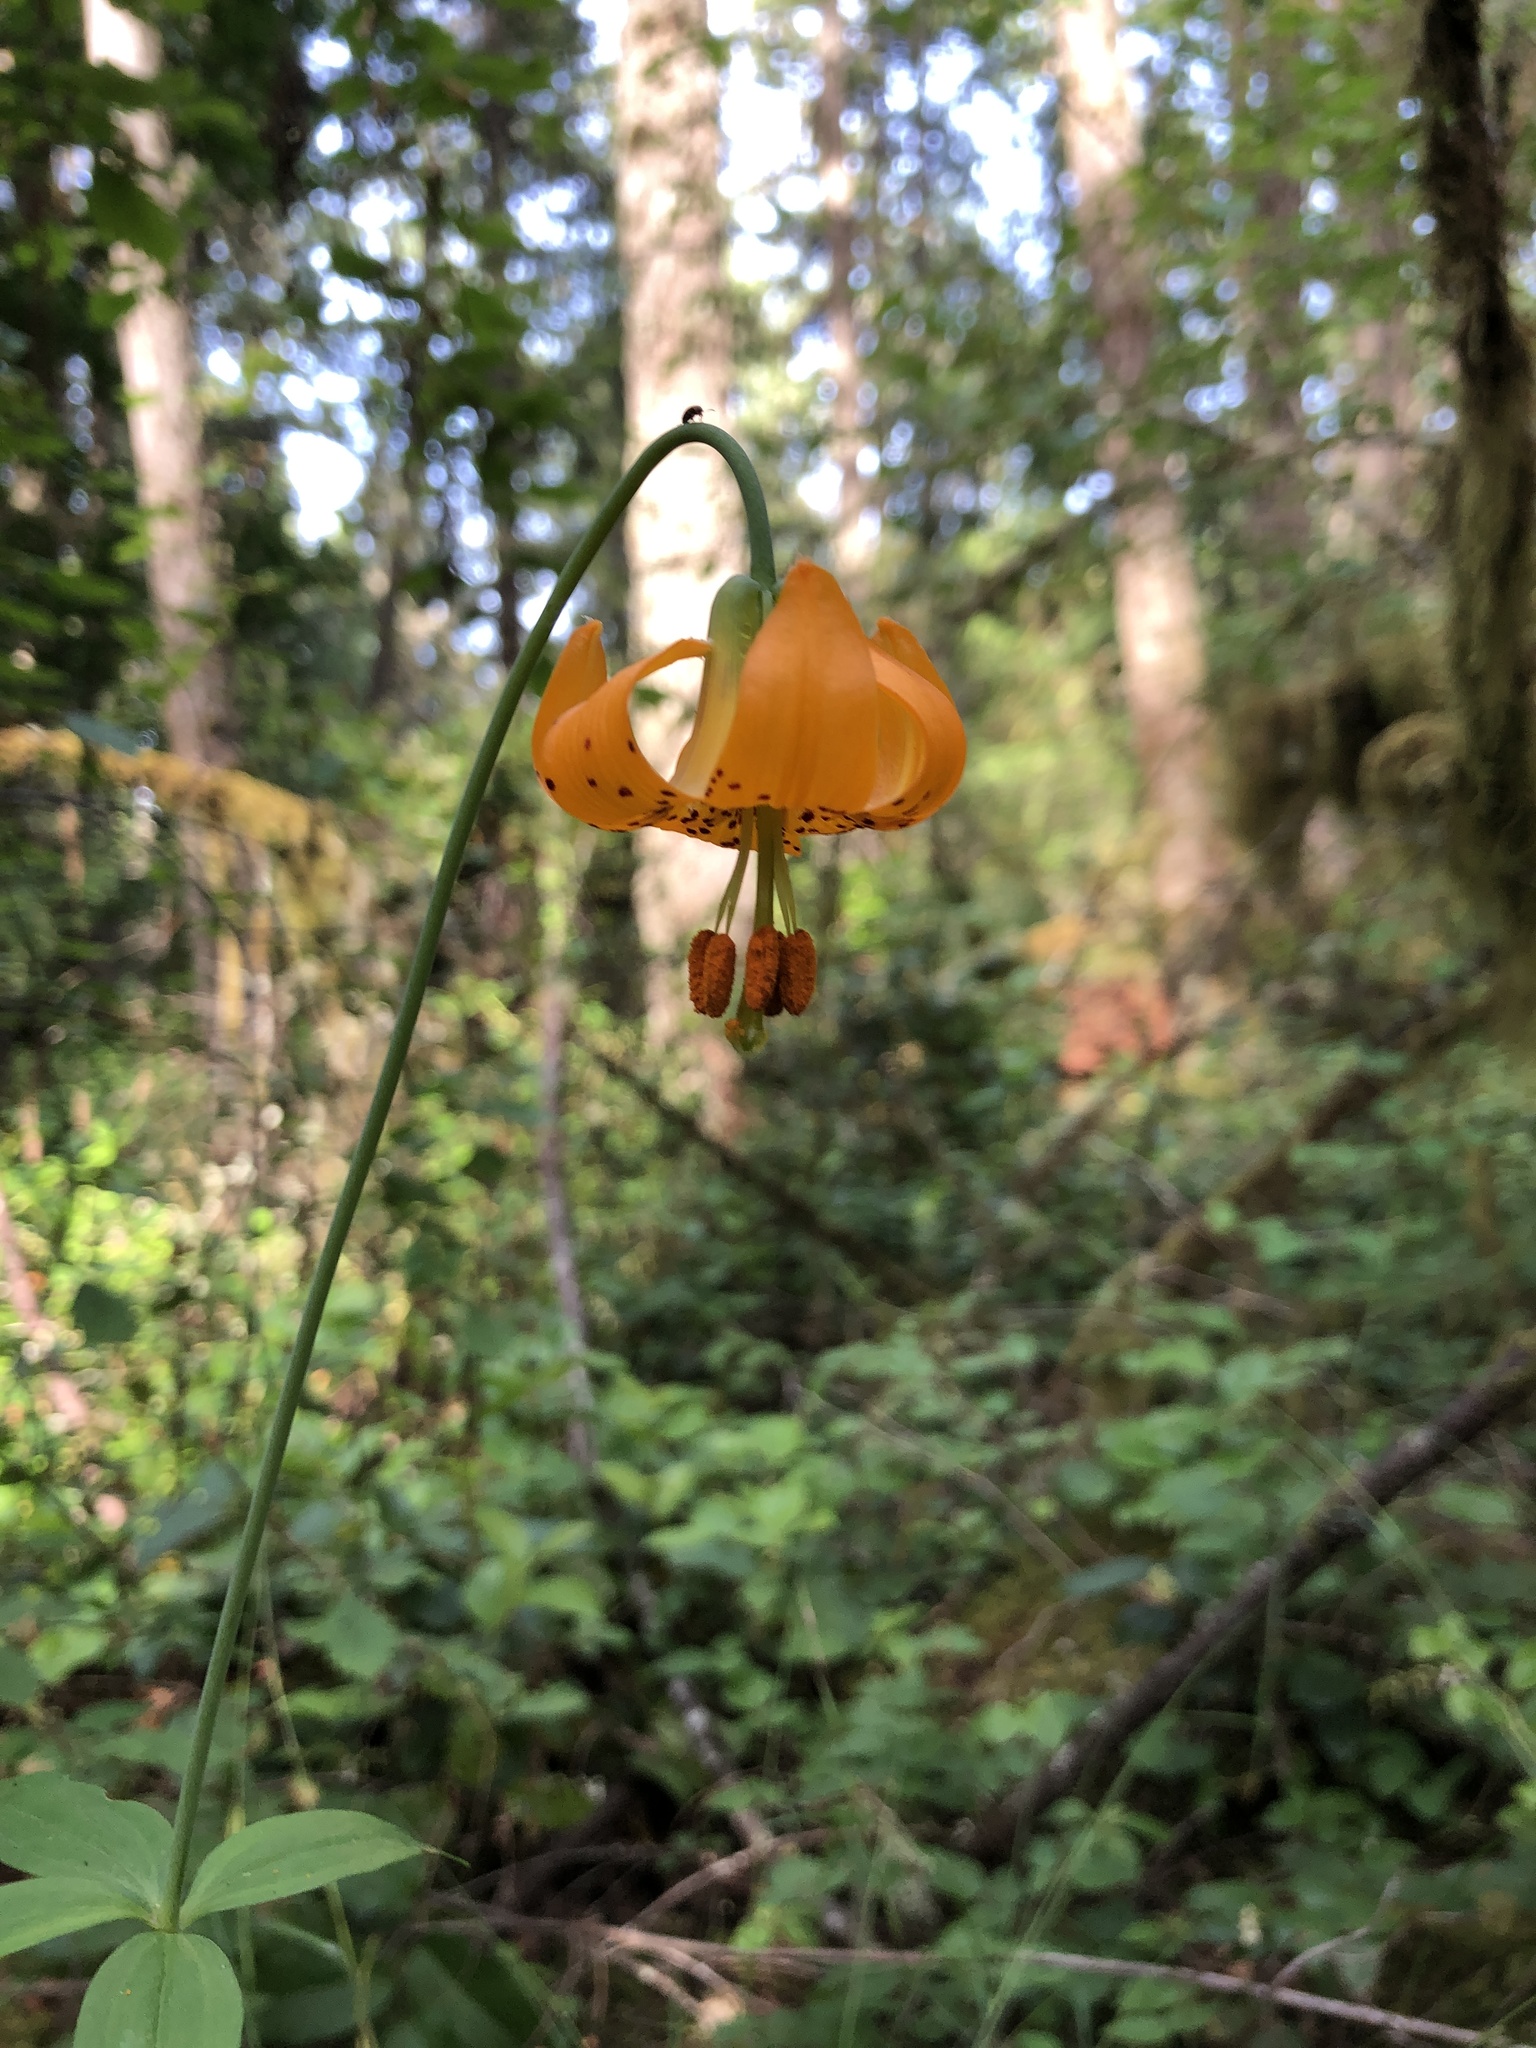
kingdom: Plantae
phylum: Tracheophyta
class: Liliopsida
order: Liliales
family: Liliaceae
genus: Lilium
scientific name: Lilium columbianum
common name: Columbia lily
